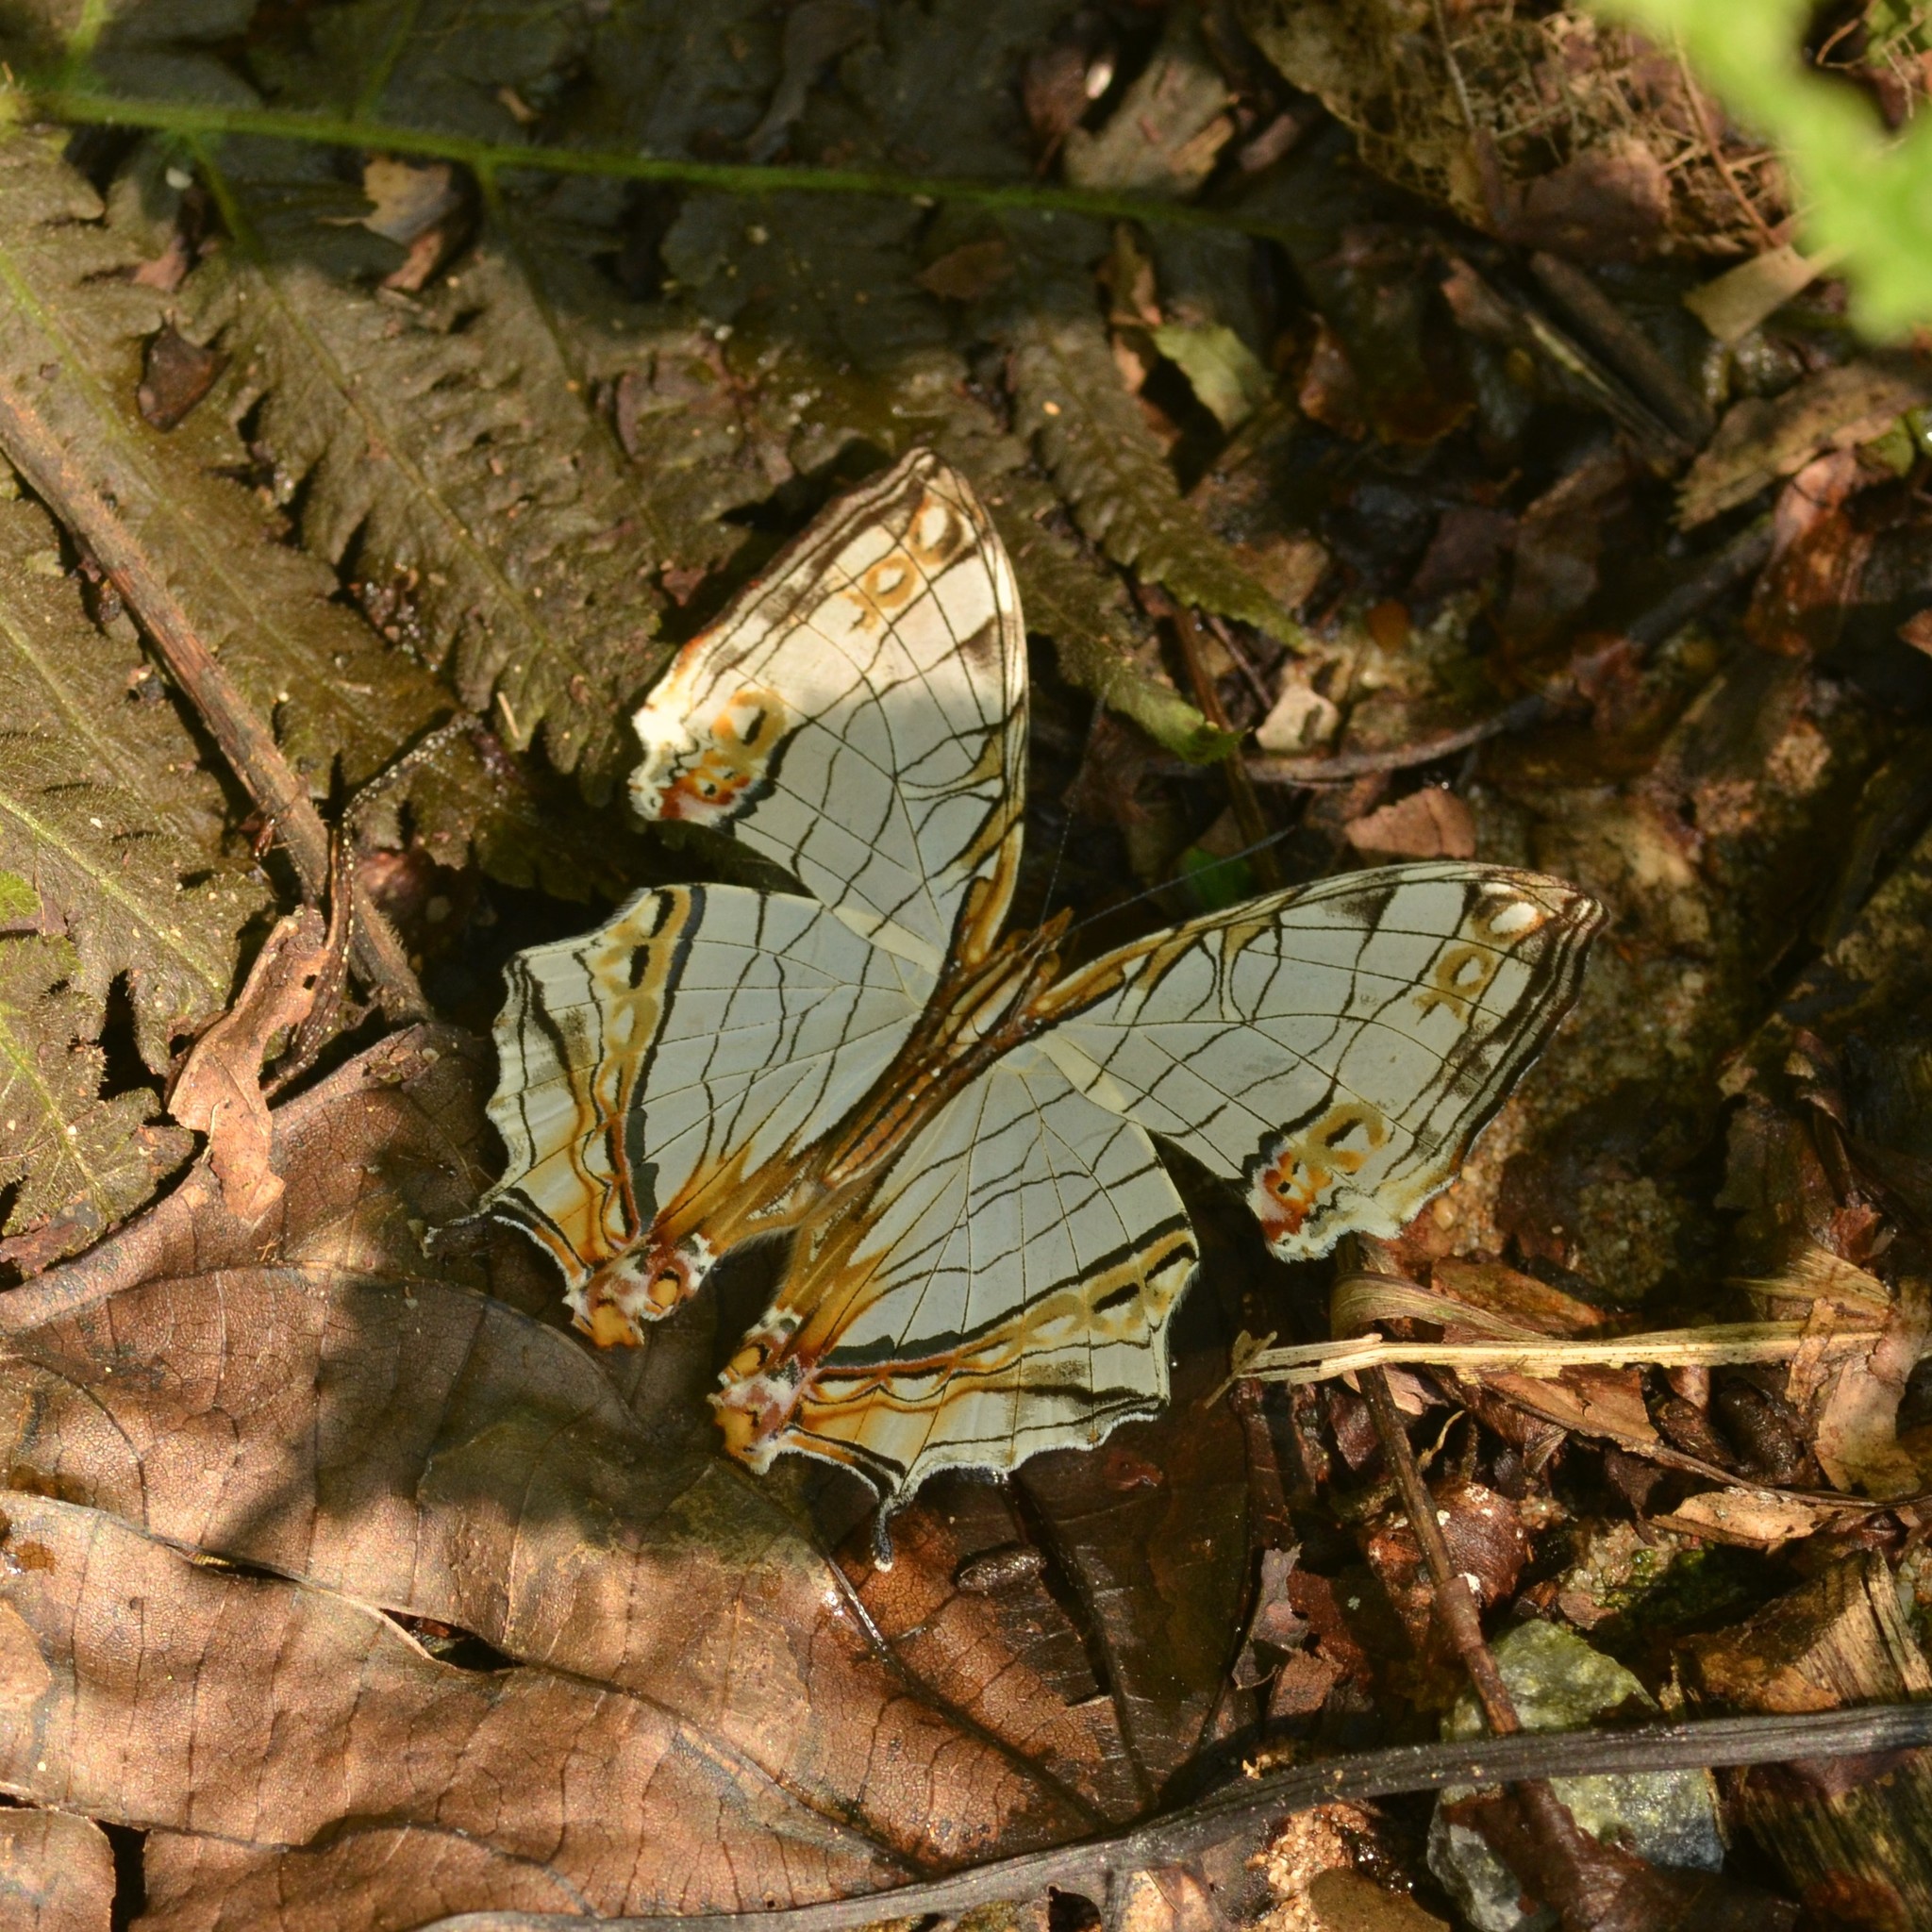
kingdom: Animalia
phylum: Arthropoda
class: Insecta
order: Lepidoptera
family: Nymphalidae
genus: Cyrestis
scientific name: Cyrestis thyodamas
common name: Common mapwing
